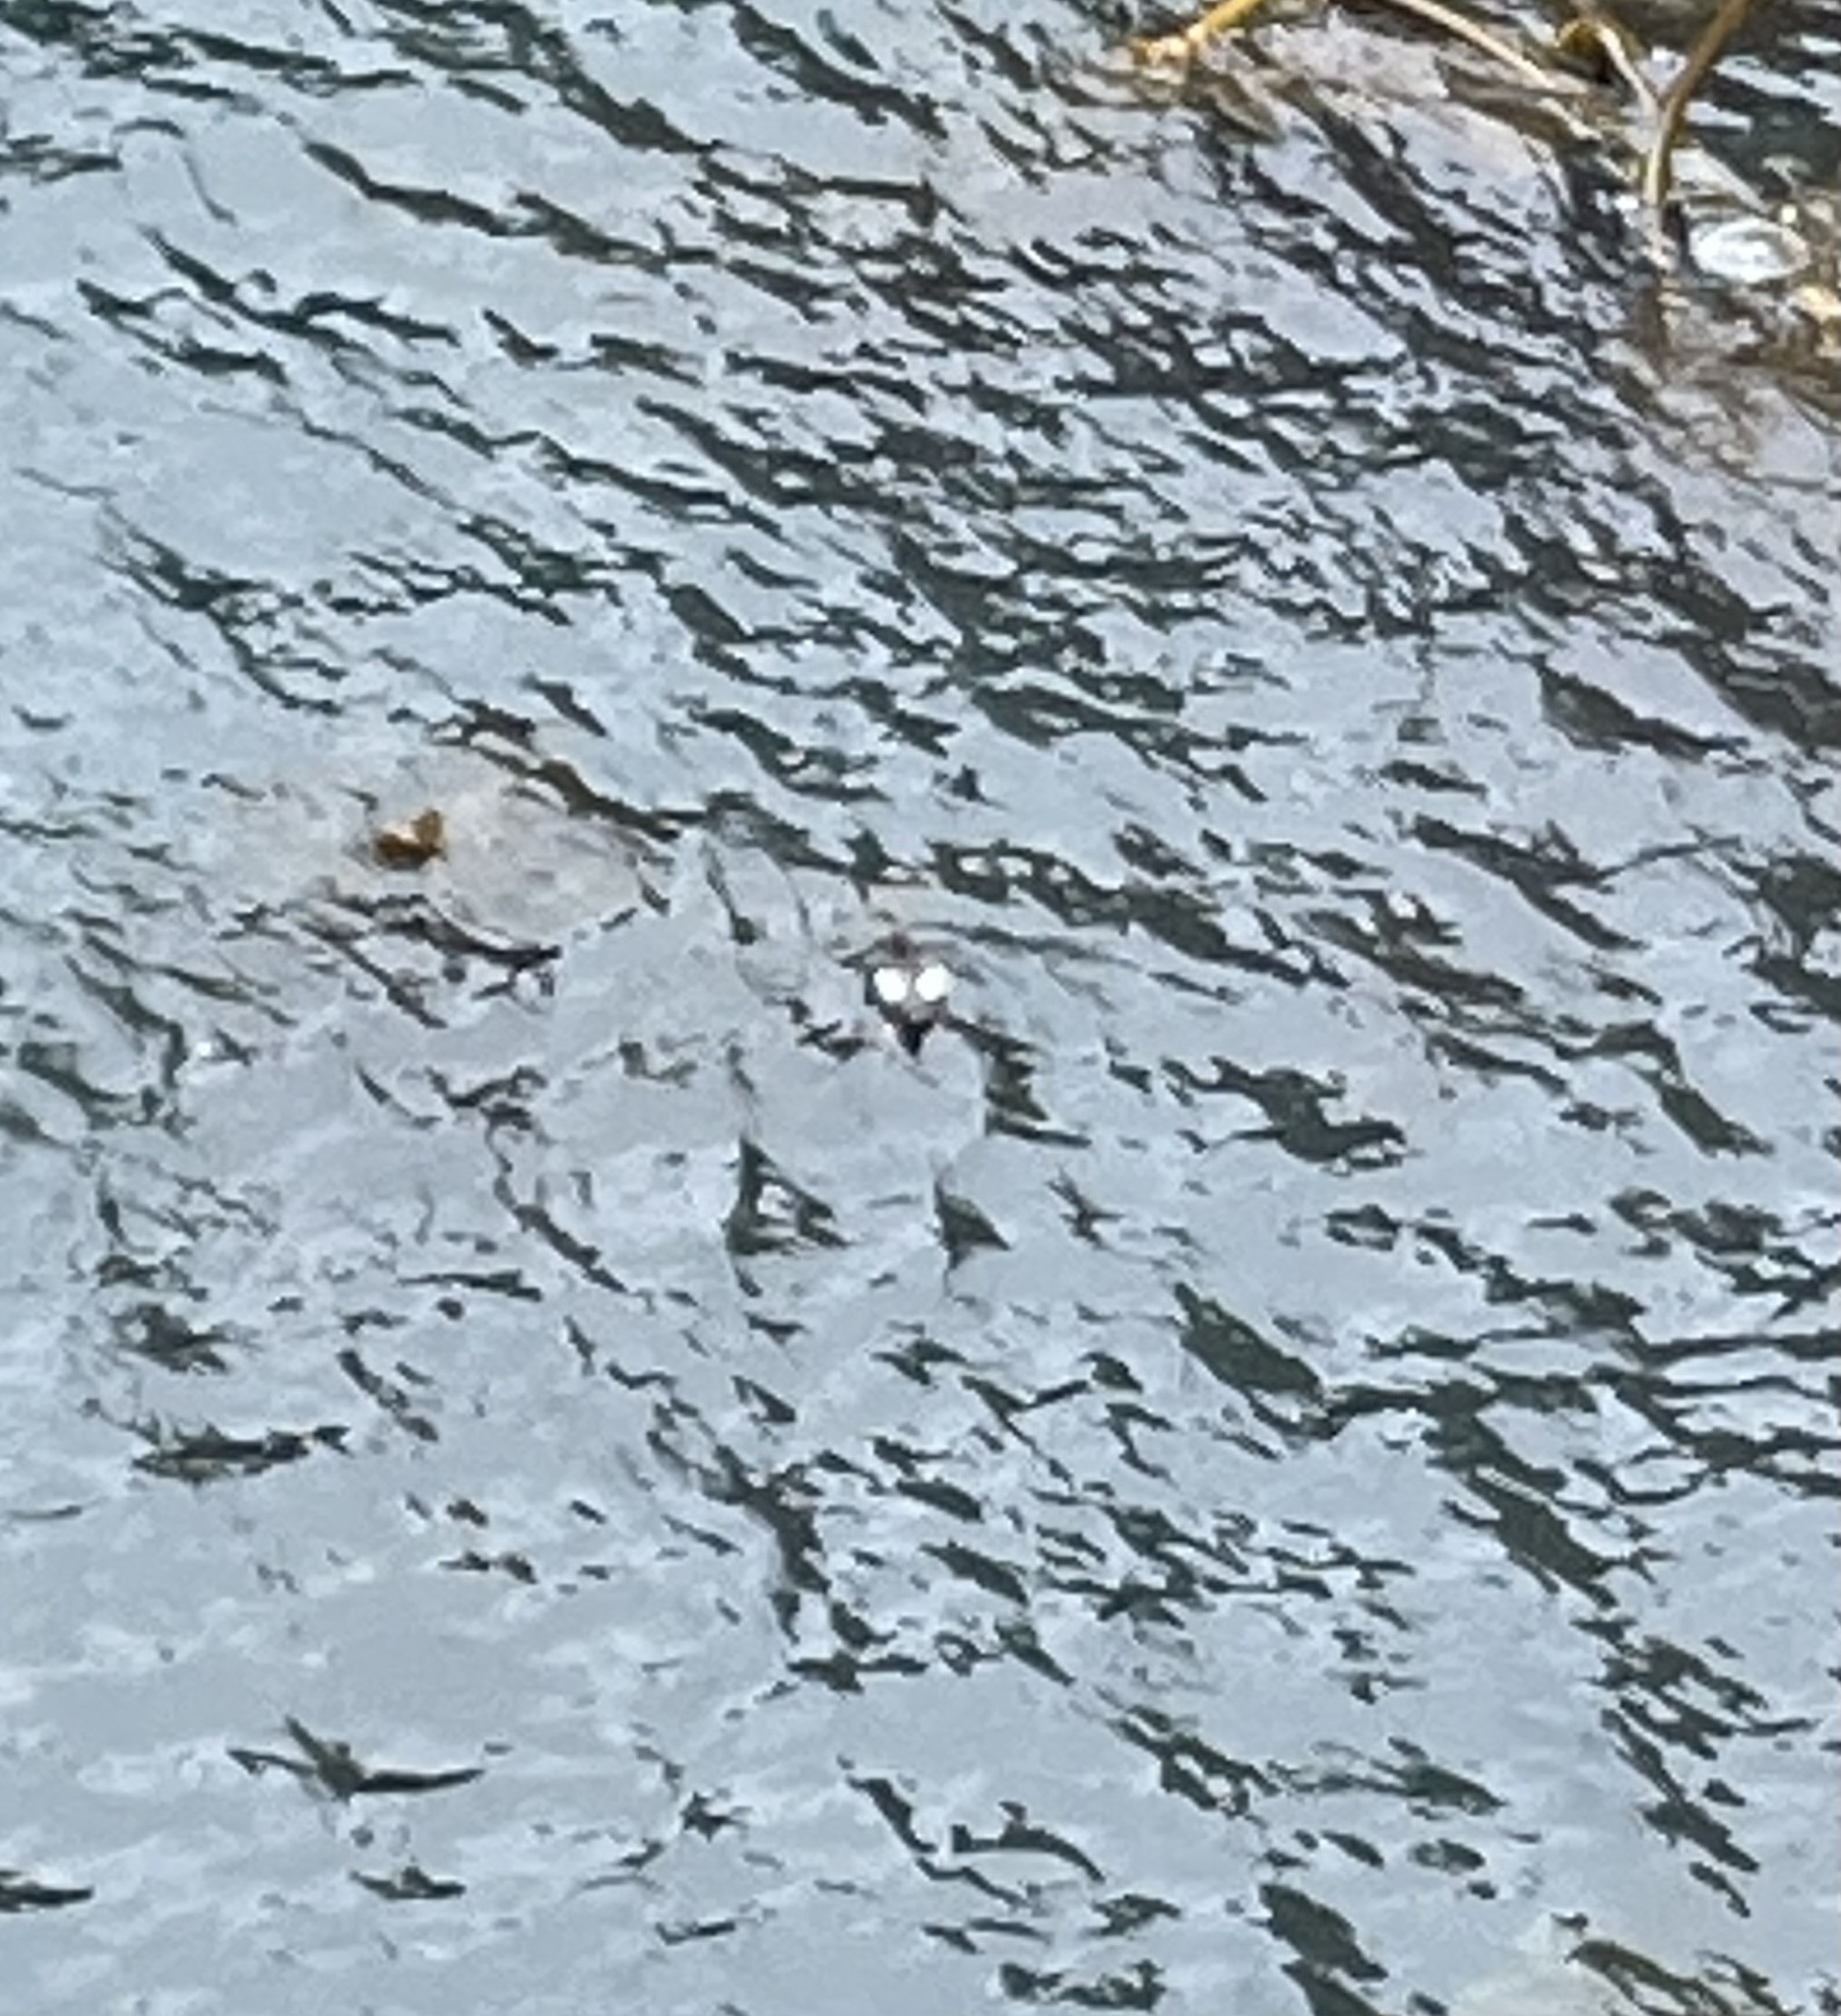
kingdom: Animalia
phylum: Chordata
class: Aves
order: Charadriiformes
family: Alcidae
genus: Cepphus
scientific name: Cepphus columba
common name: Pigeon guillemot
